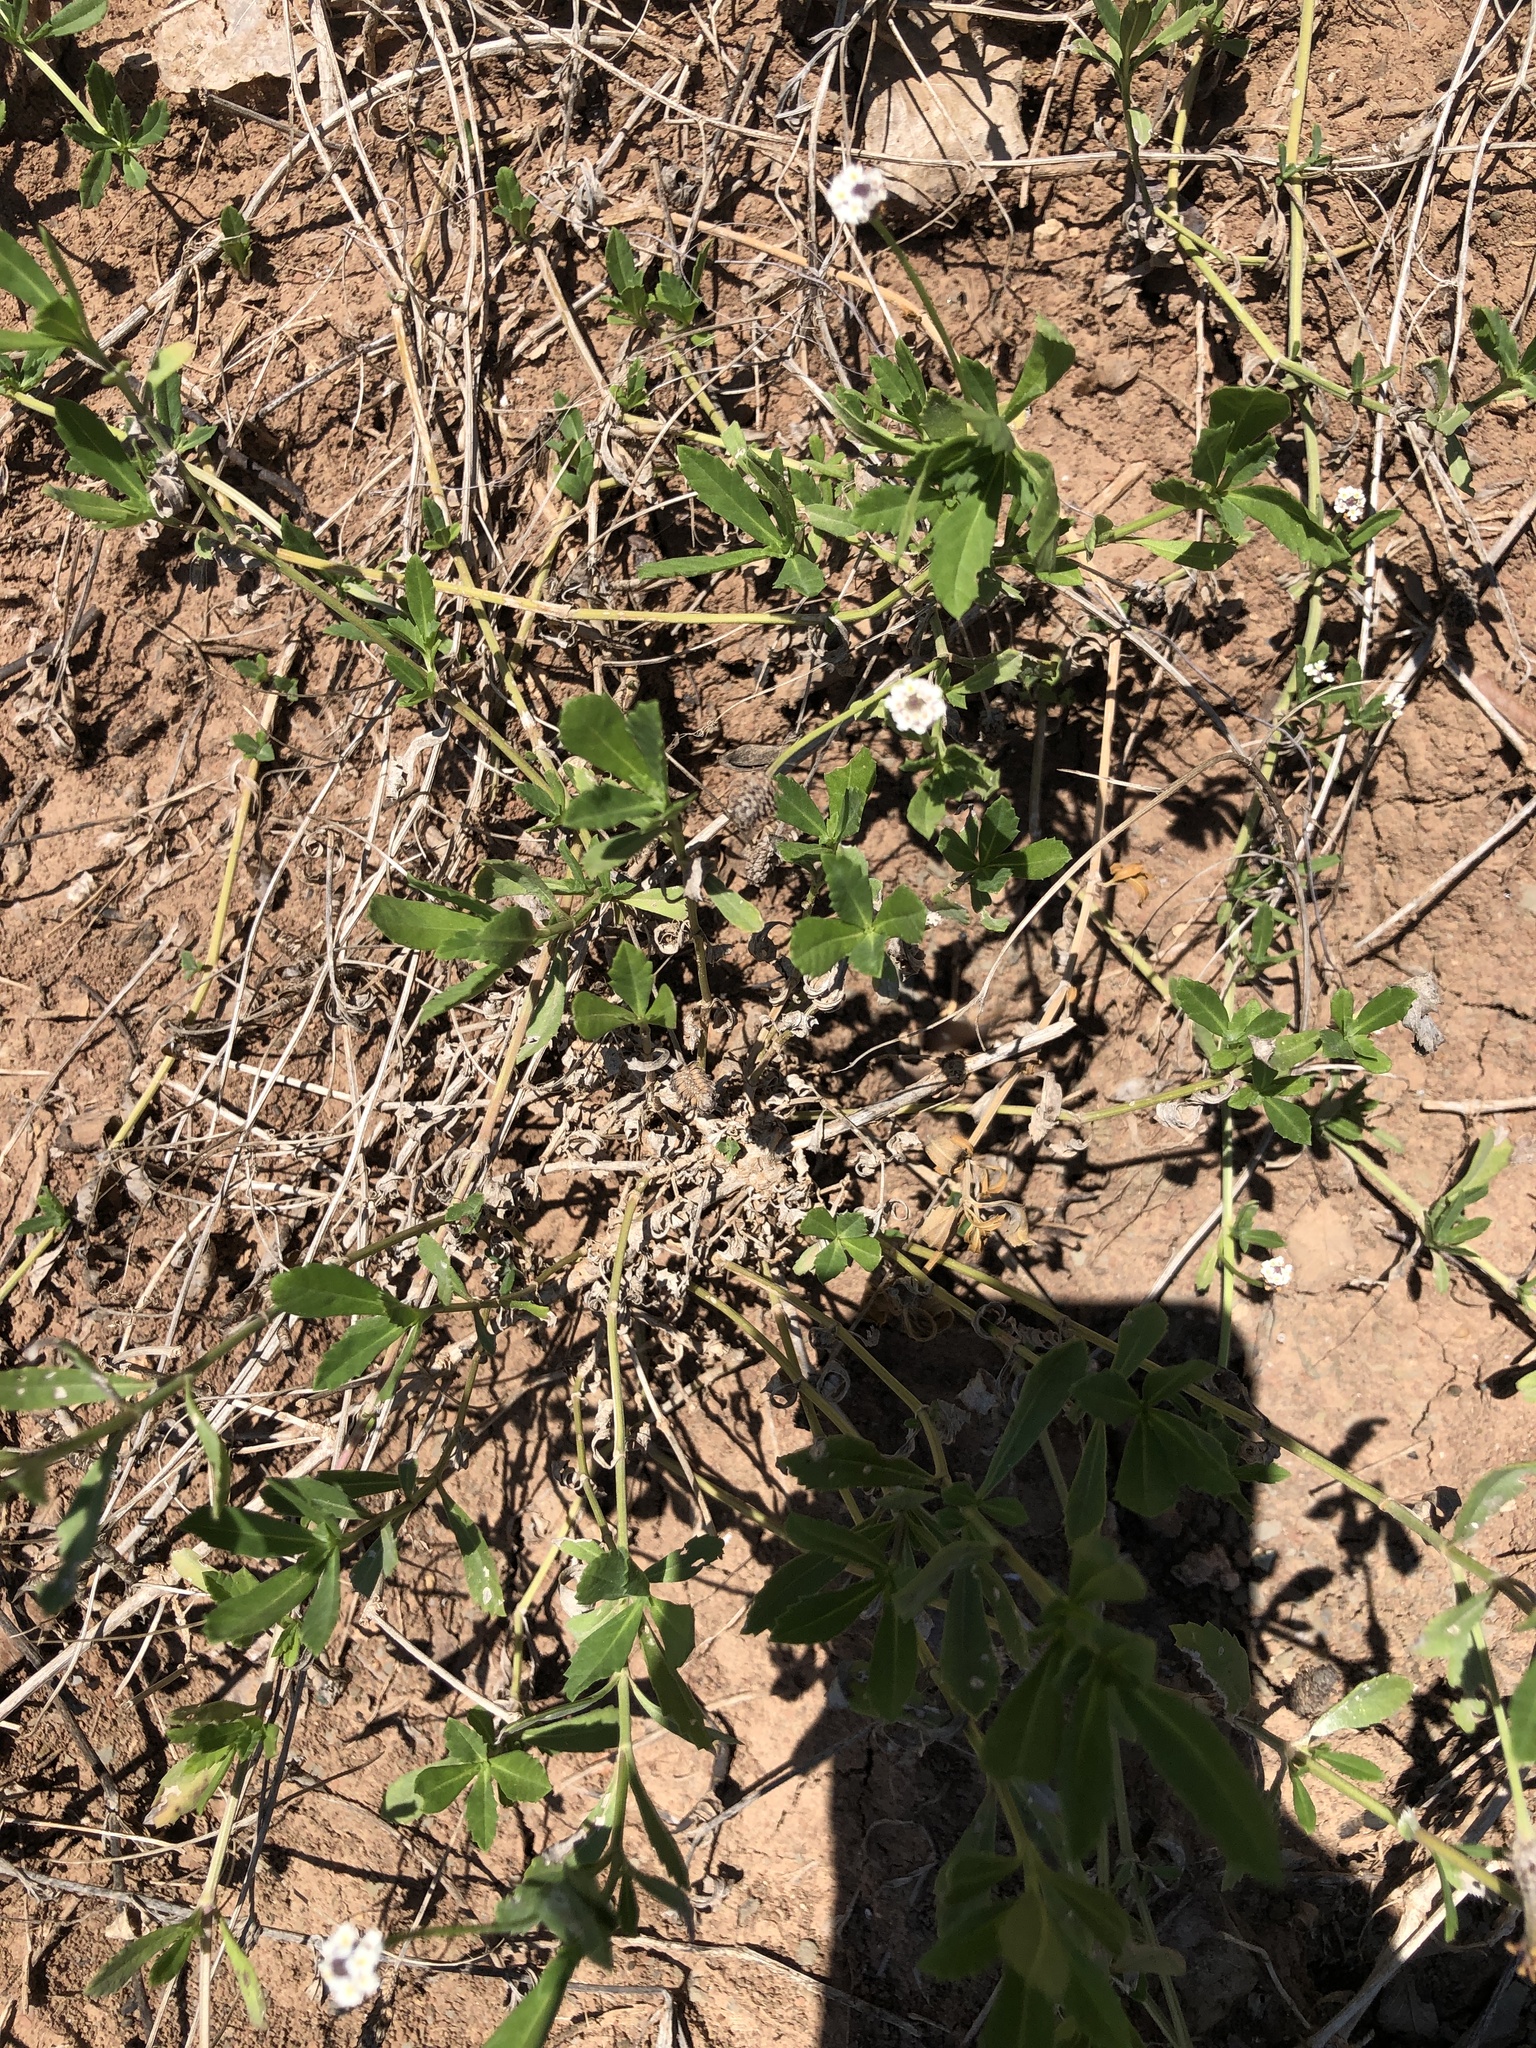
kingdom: Plantae
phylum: Tracheophyta
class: Magnoliopsida
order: Lamiales
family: Verbenaceae
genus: Phyla
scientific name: Phyla nodiflora
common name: Frogfruit
